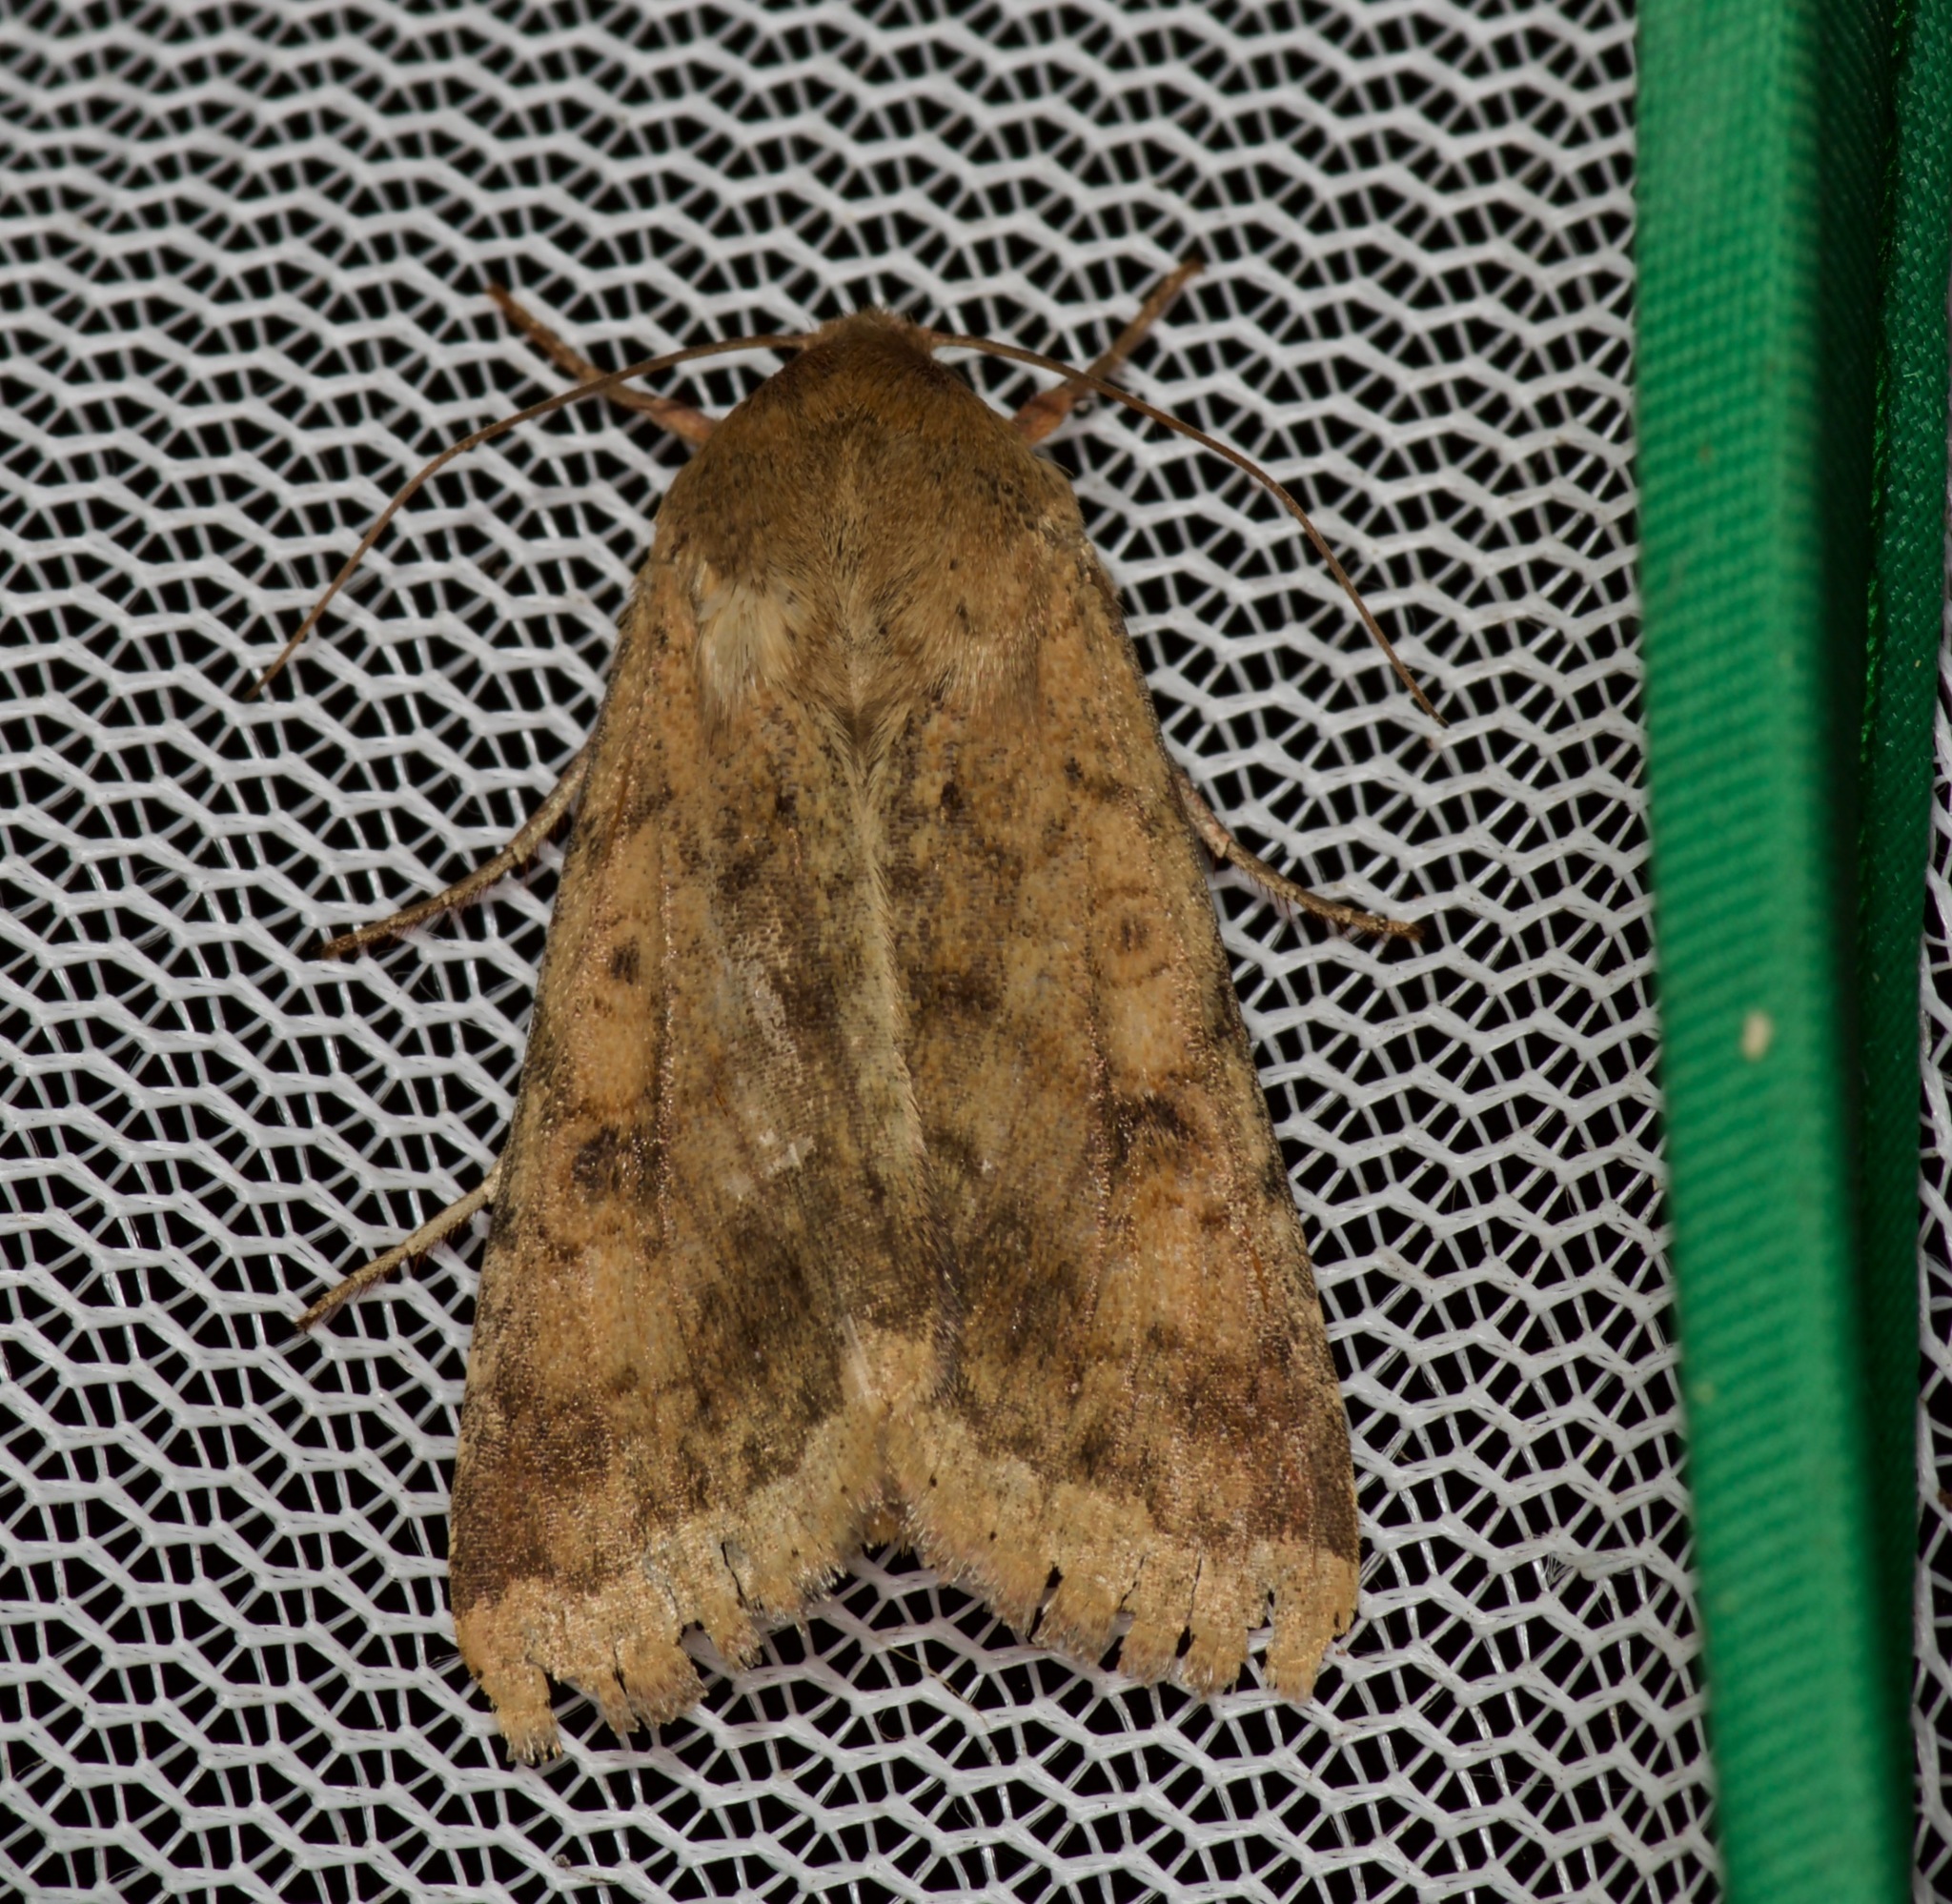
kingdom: Animalia
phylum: Arthropoda
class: Insecta
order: Lepidoptera
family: Noctuidae
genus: Helicoverpa
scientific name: Helicoverpa zea
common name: Bollworm
